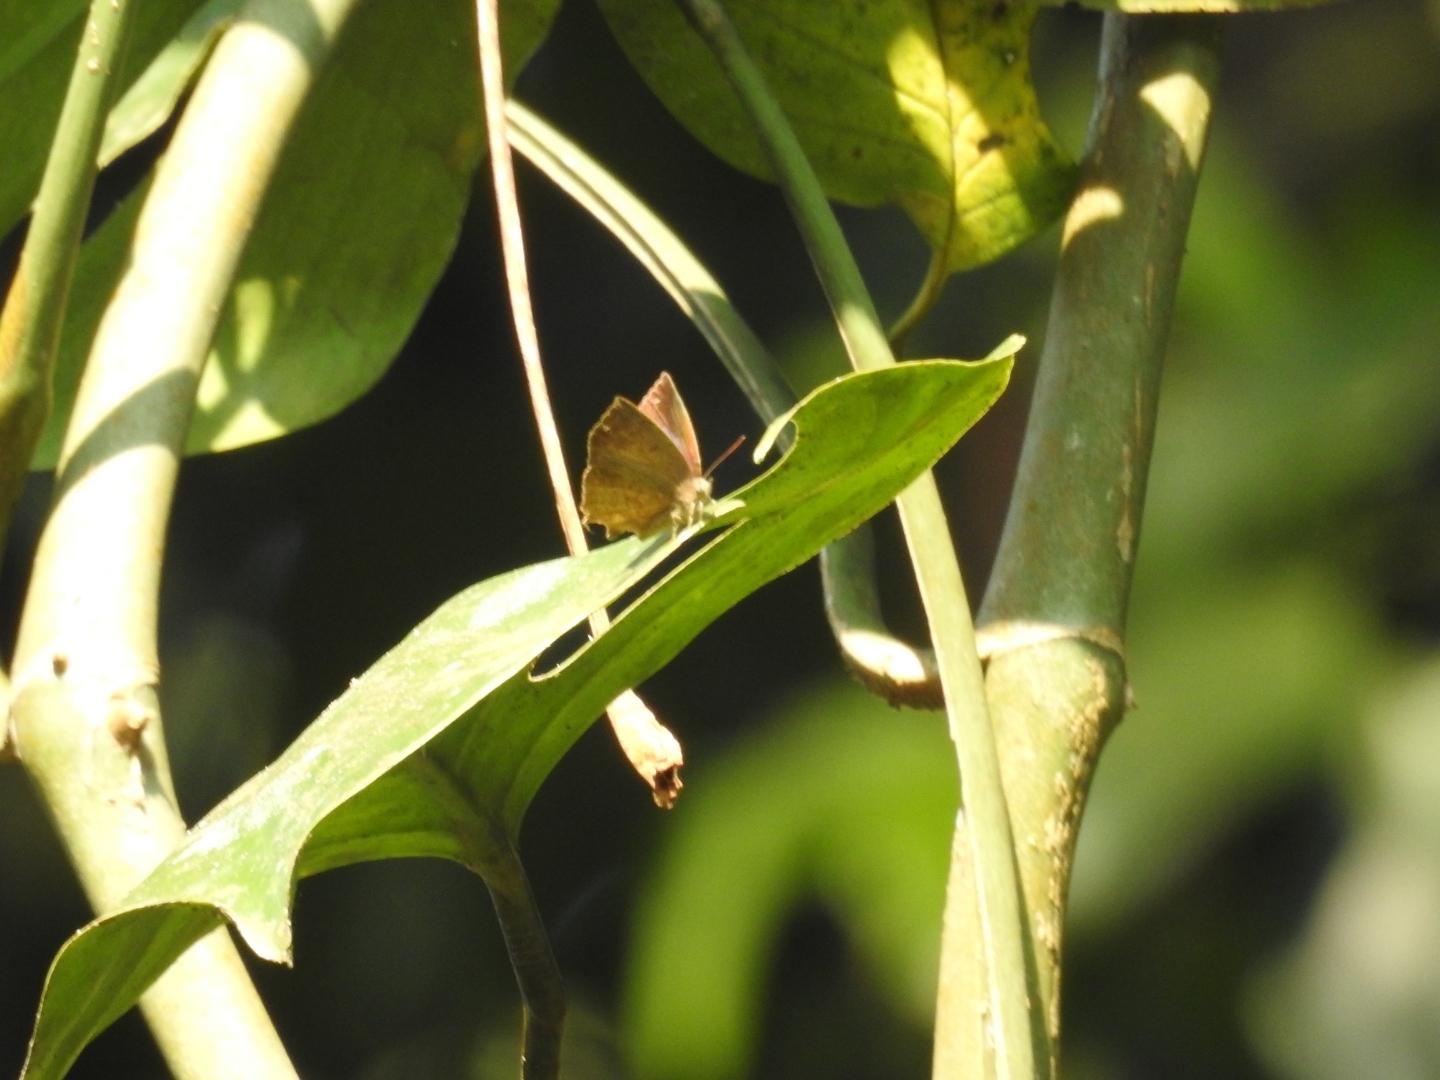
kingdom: Animalia
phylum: Arthropoda
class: Insecta
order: Lepidoptera
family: Lycaenidae
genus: Surendra
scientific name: Surendra quercetorum
